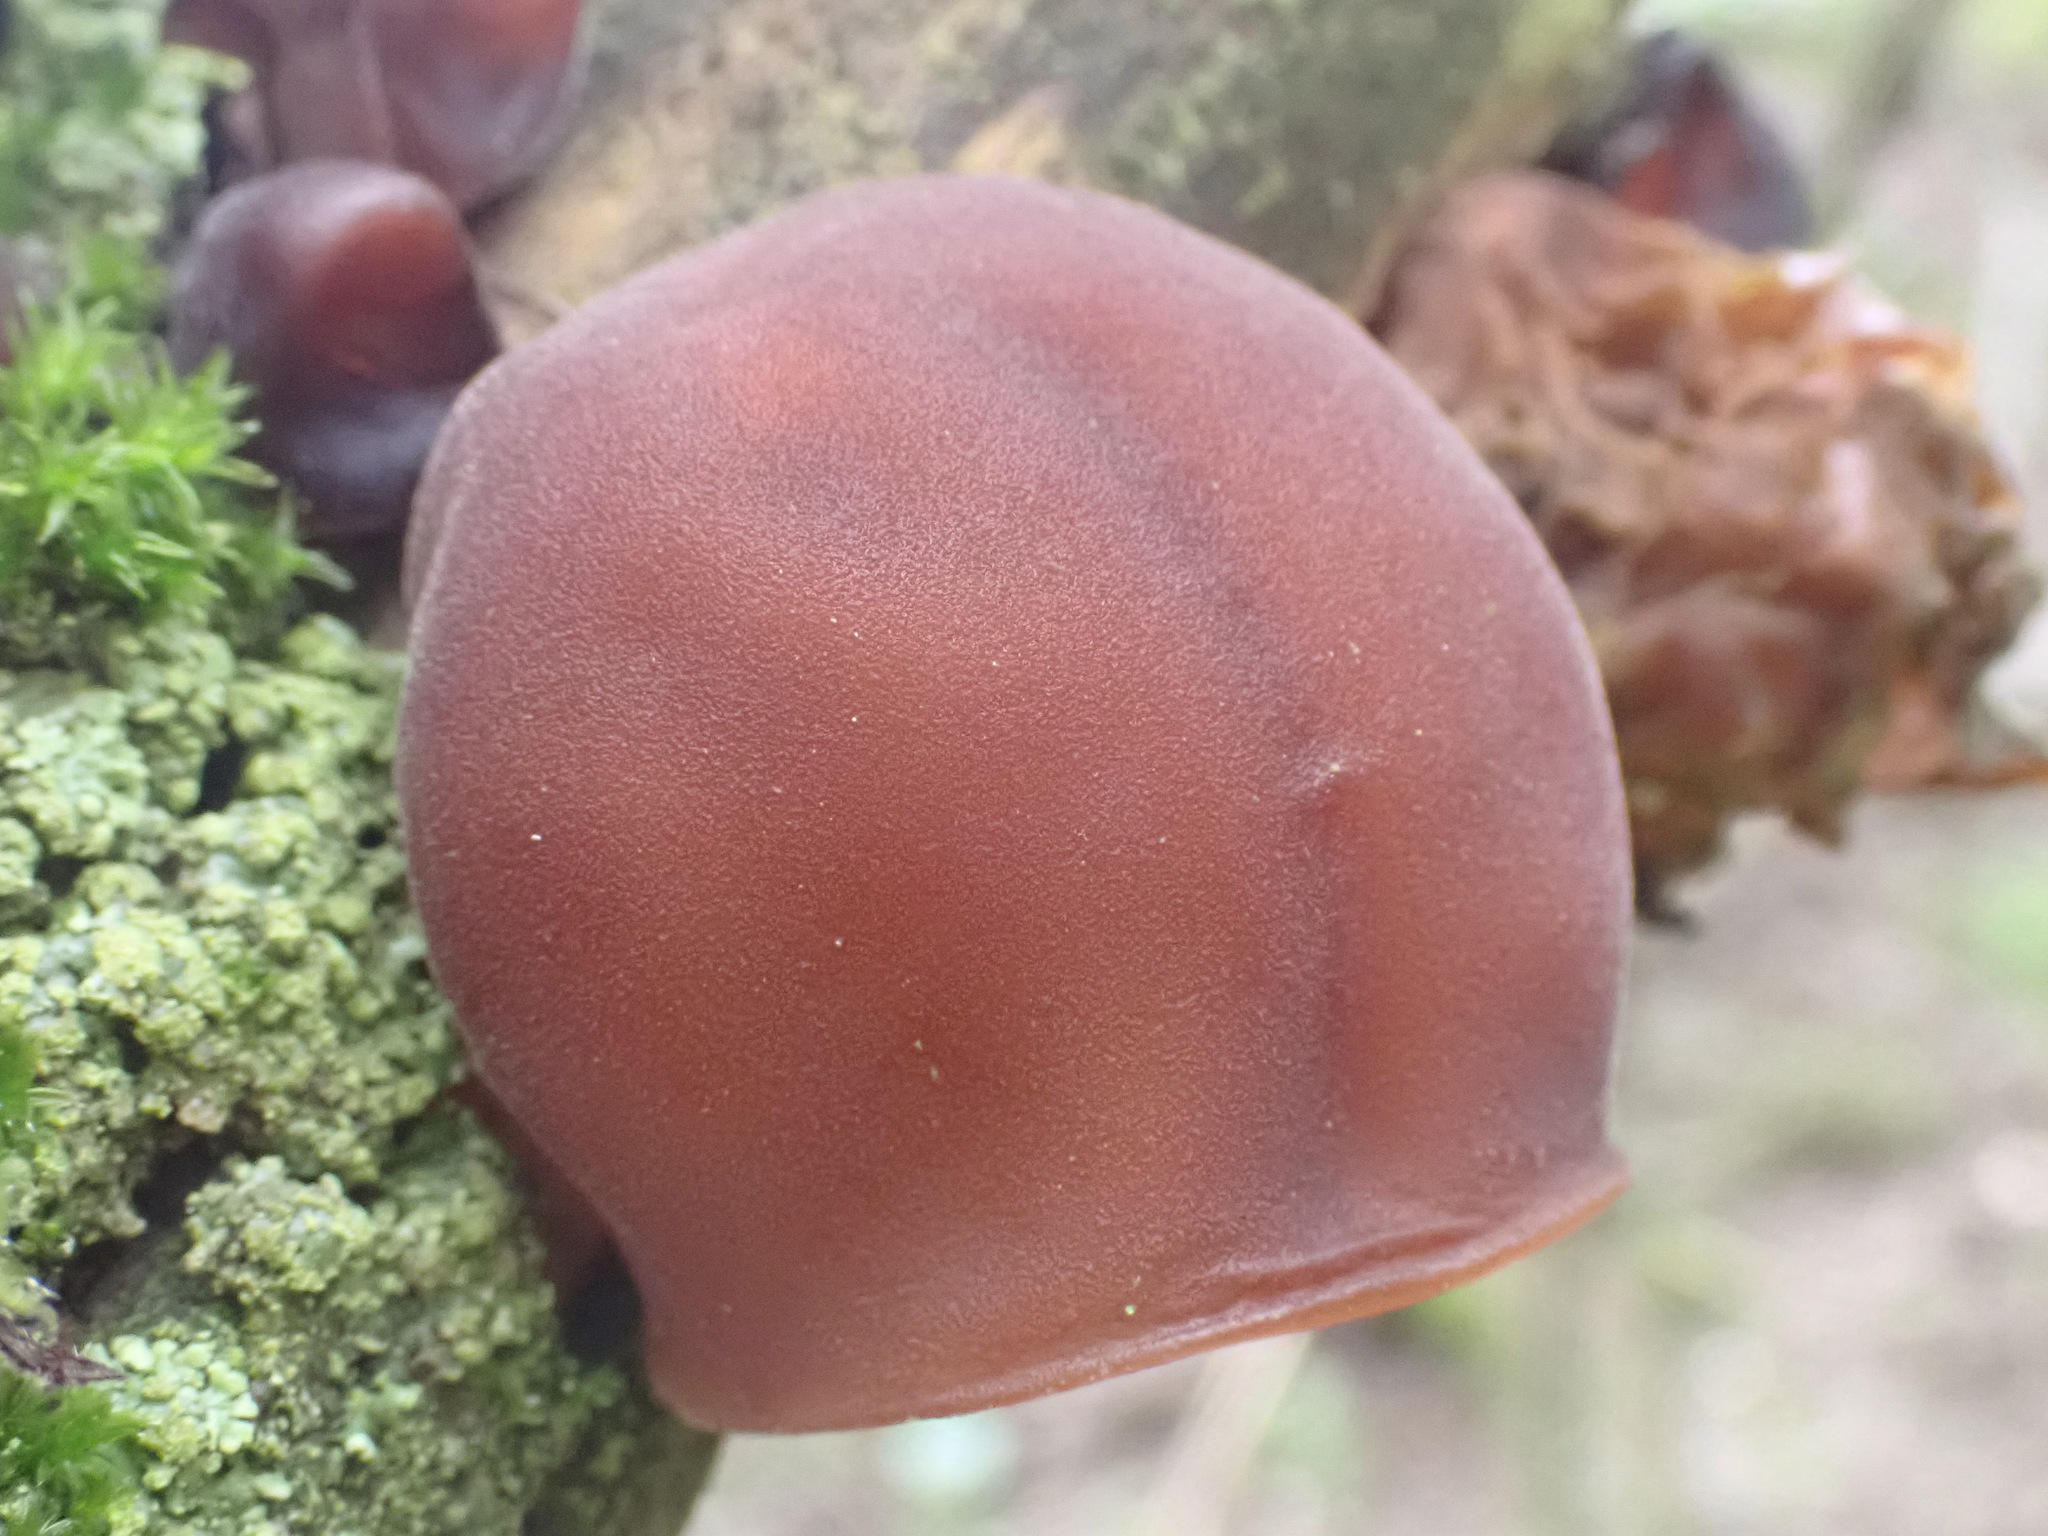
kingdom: Fungi
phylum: Basidiomycota
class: Agaricomycetes
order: Auriculariales
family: Auriculariaceae
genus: Auricularia
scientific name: Auricularia auricula-judae
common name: Jelly ear
